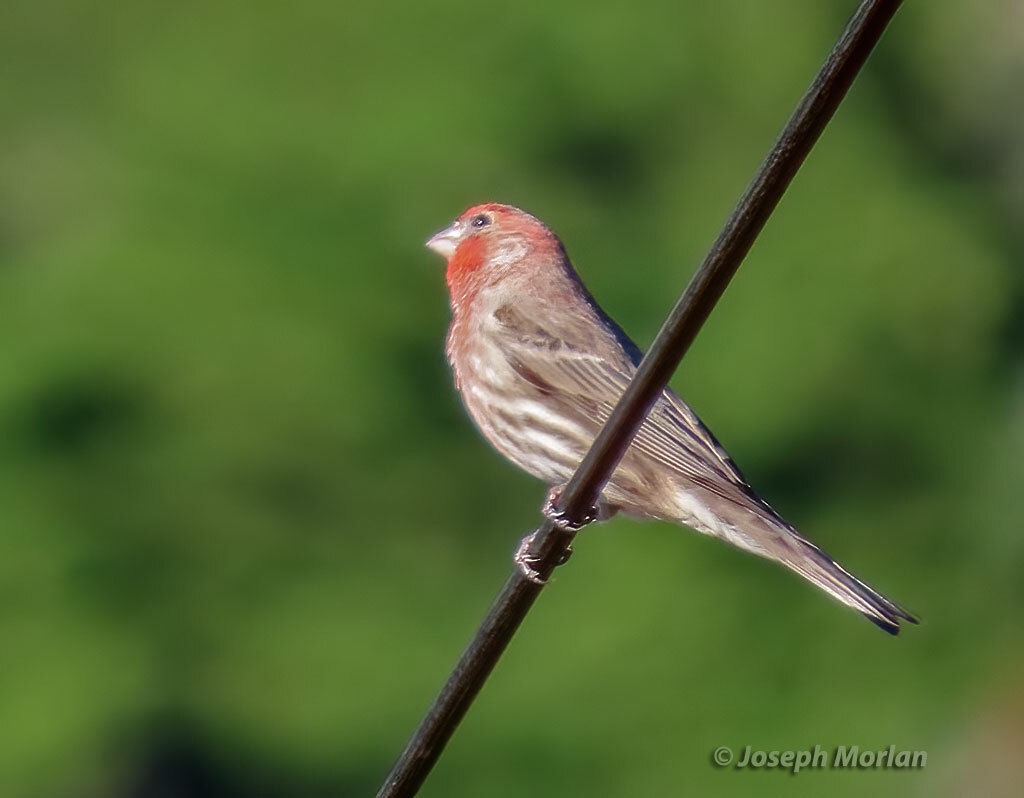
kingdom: Animalia
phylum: Chordata
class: Aves
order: Passeriformes
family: Fringillidae
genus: Haemorhous
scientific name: Haemorhous mexicanus
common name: House finch
